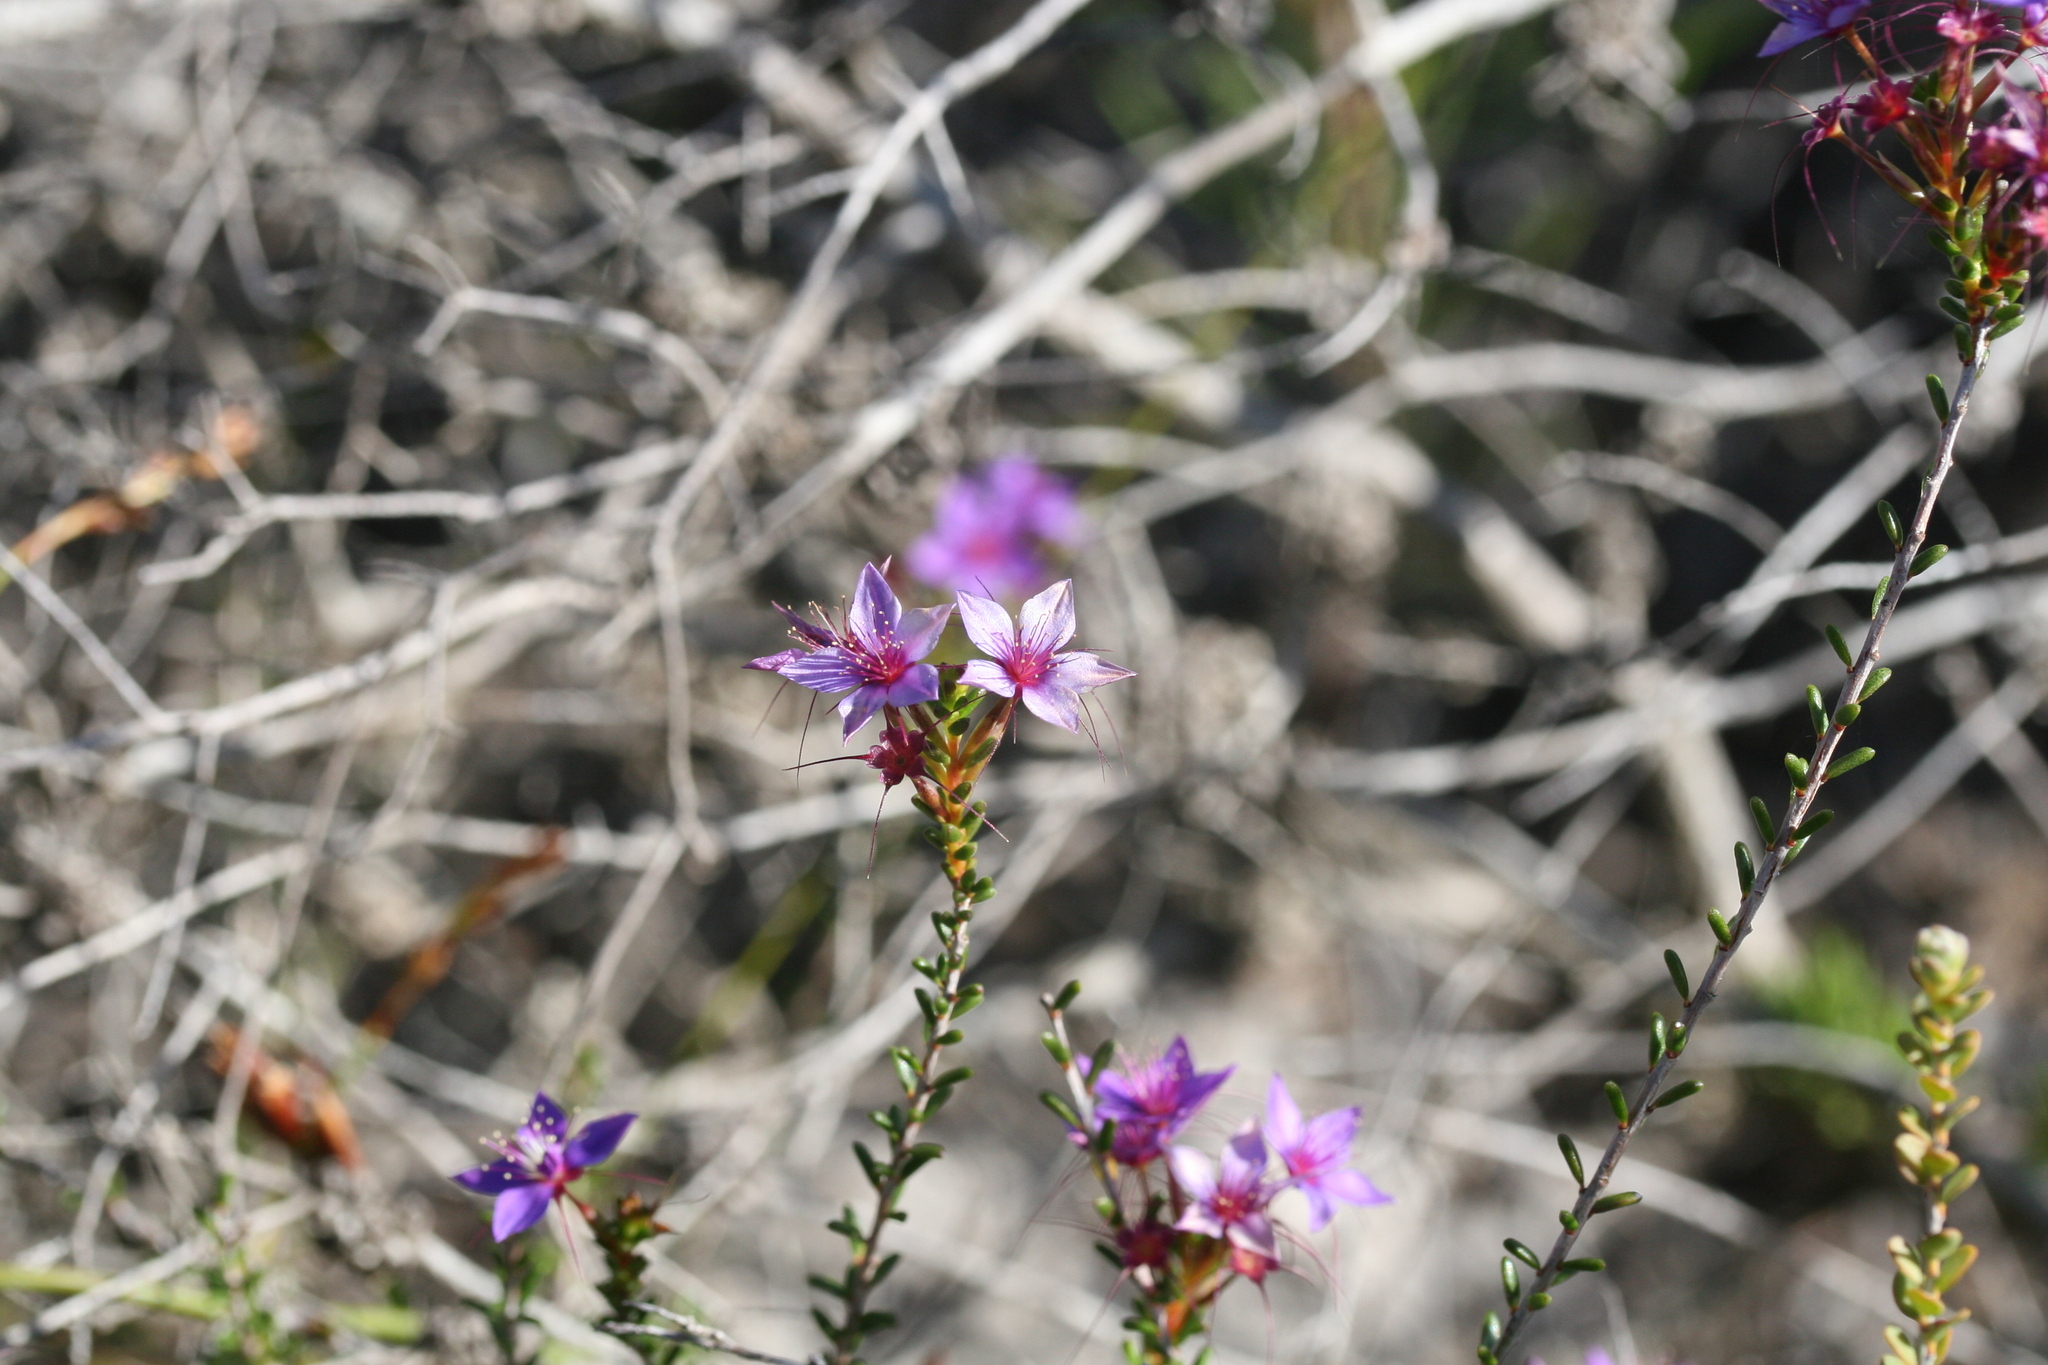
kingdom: Plantae
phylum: Tracheophyta
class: Magnoliopsida
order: Myrtales
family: Myrtaceae
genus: Calytrix
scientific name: Calytrix leschenaultii
